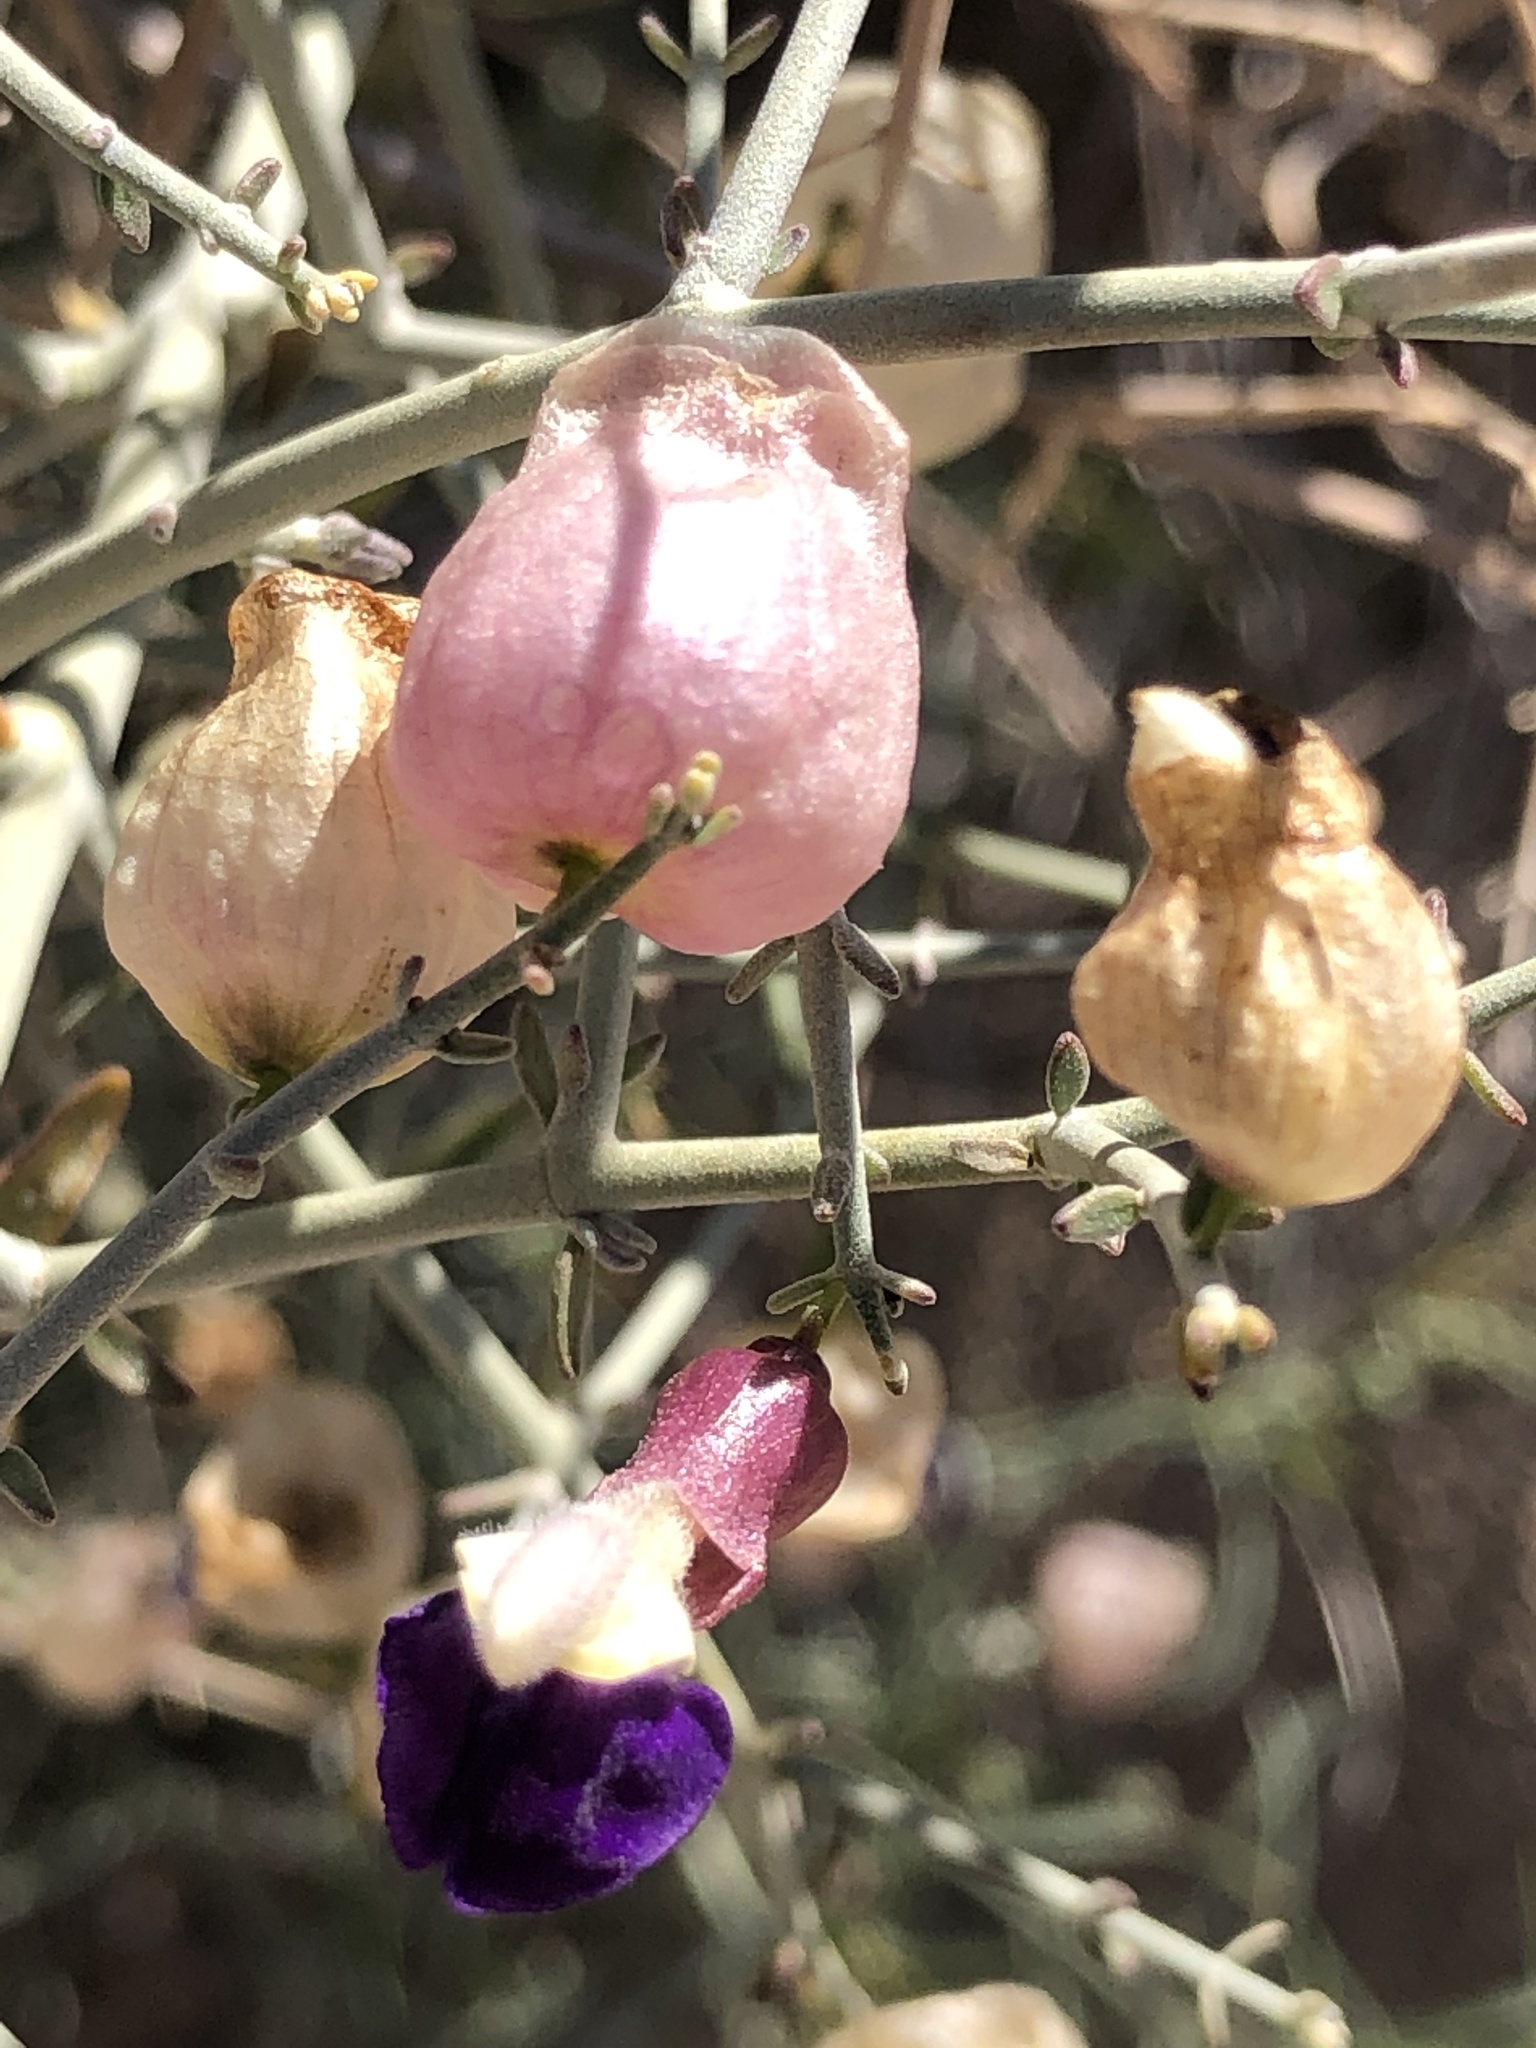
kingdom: Plantae
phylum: Tracheophyta
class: Magnoliopsida
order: Lamiales
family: Lamiaceae
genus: Scutellaria
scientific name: Scutellaria mexicana
